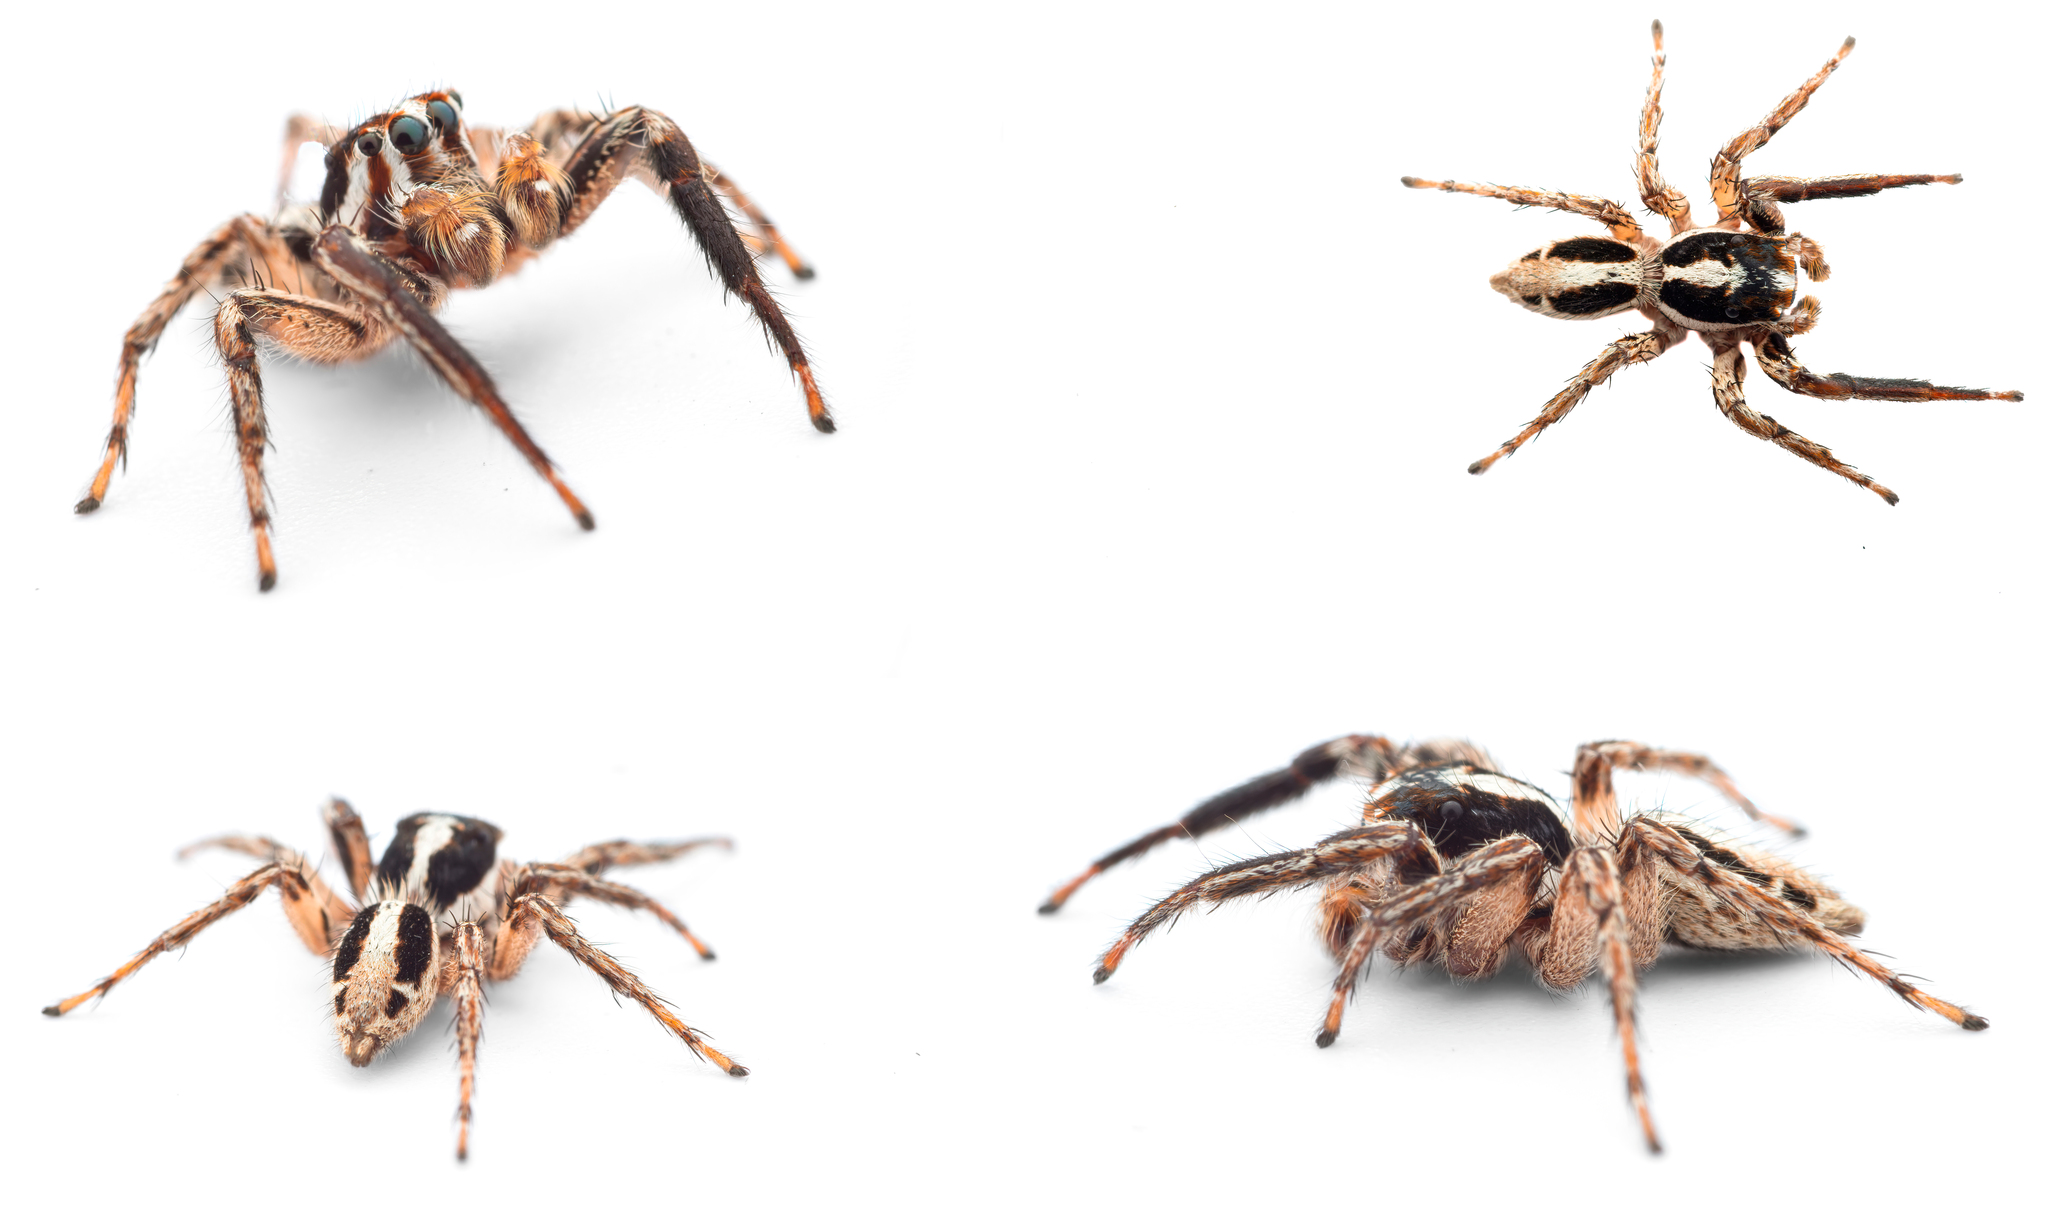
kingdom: Animalia
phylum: Arthropoda
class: Arachnida
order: Araneae
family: Salticidae
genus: Plexippus
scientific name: Plexippus paykulli
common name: Pantropical jumper
